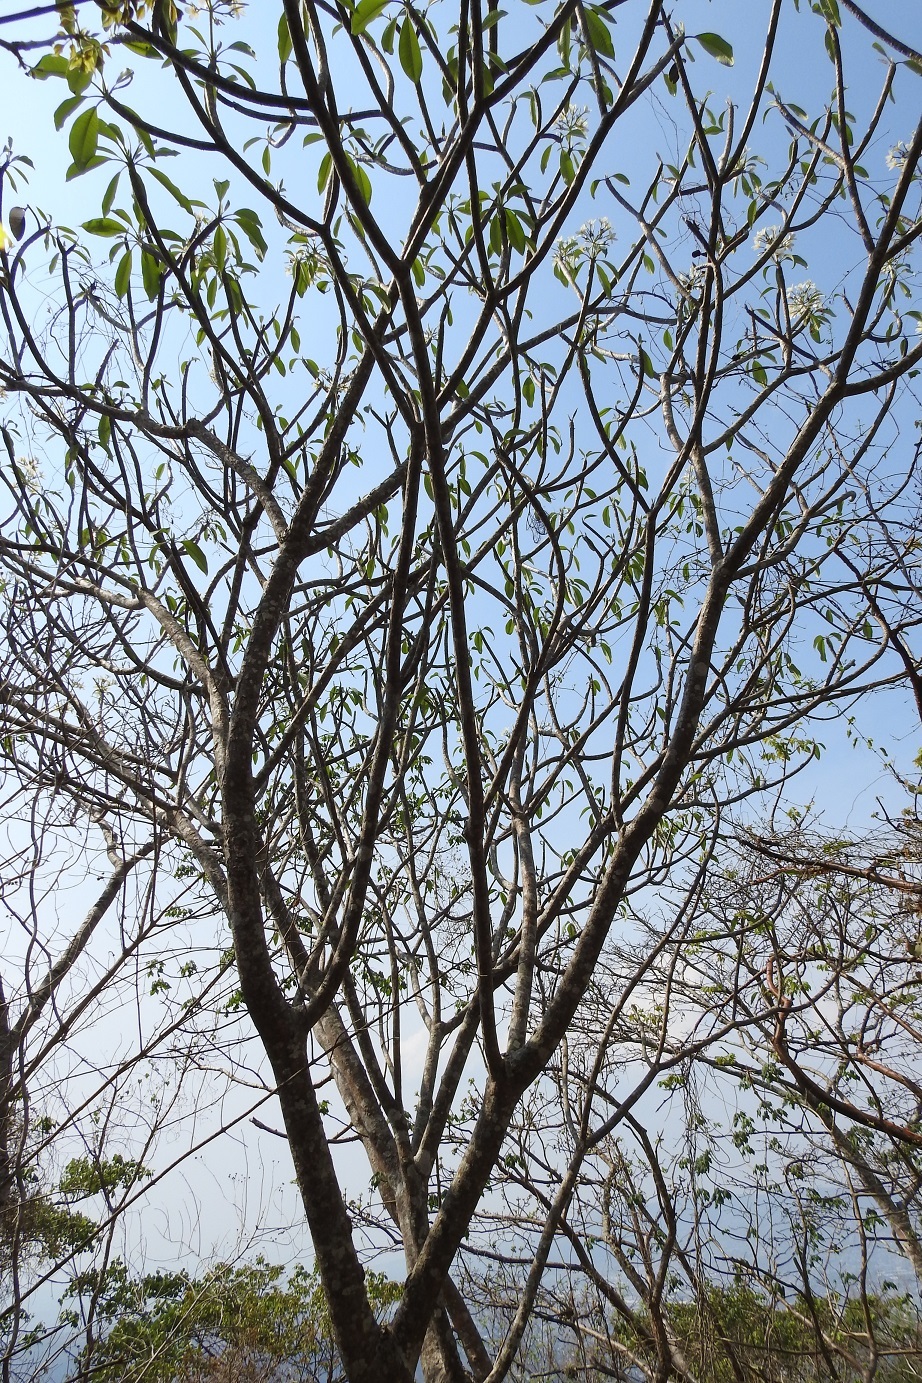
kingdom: Plantae
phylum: Tracheophyta
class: Magnoliopsida
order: Gentianales
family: Apocynaceae
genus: Plumeria
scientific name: Plumeria rubra
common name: Pagoda-tree
